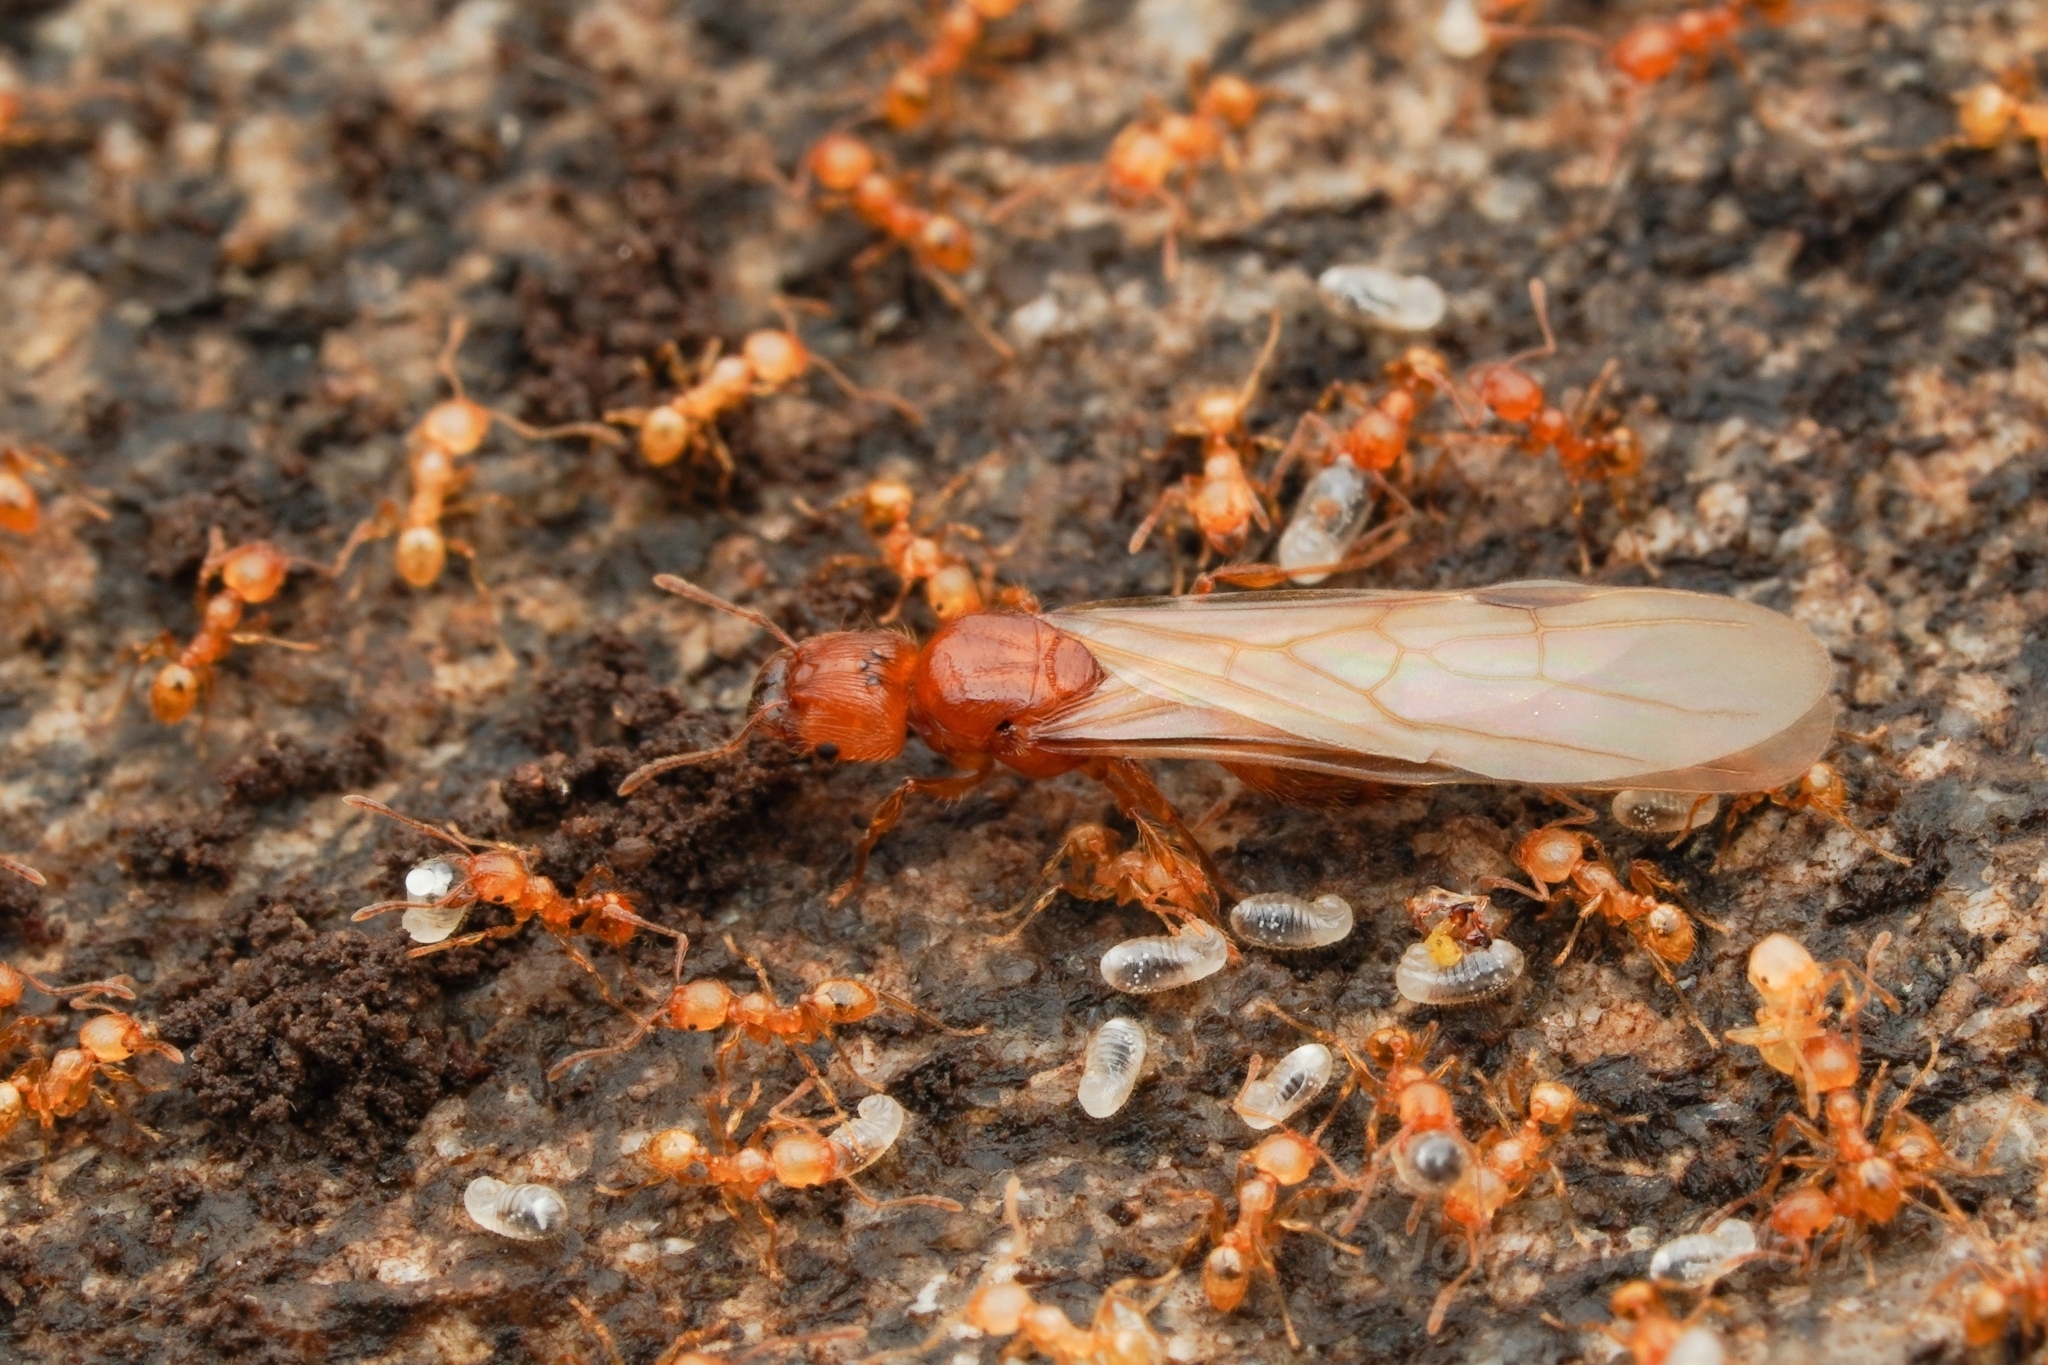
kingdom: Animalia
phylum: Arthropoda
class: Insecta
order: Hymenoptera
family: Formicidae
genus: Pheidole
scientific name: Pheidole fervida
